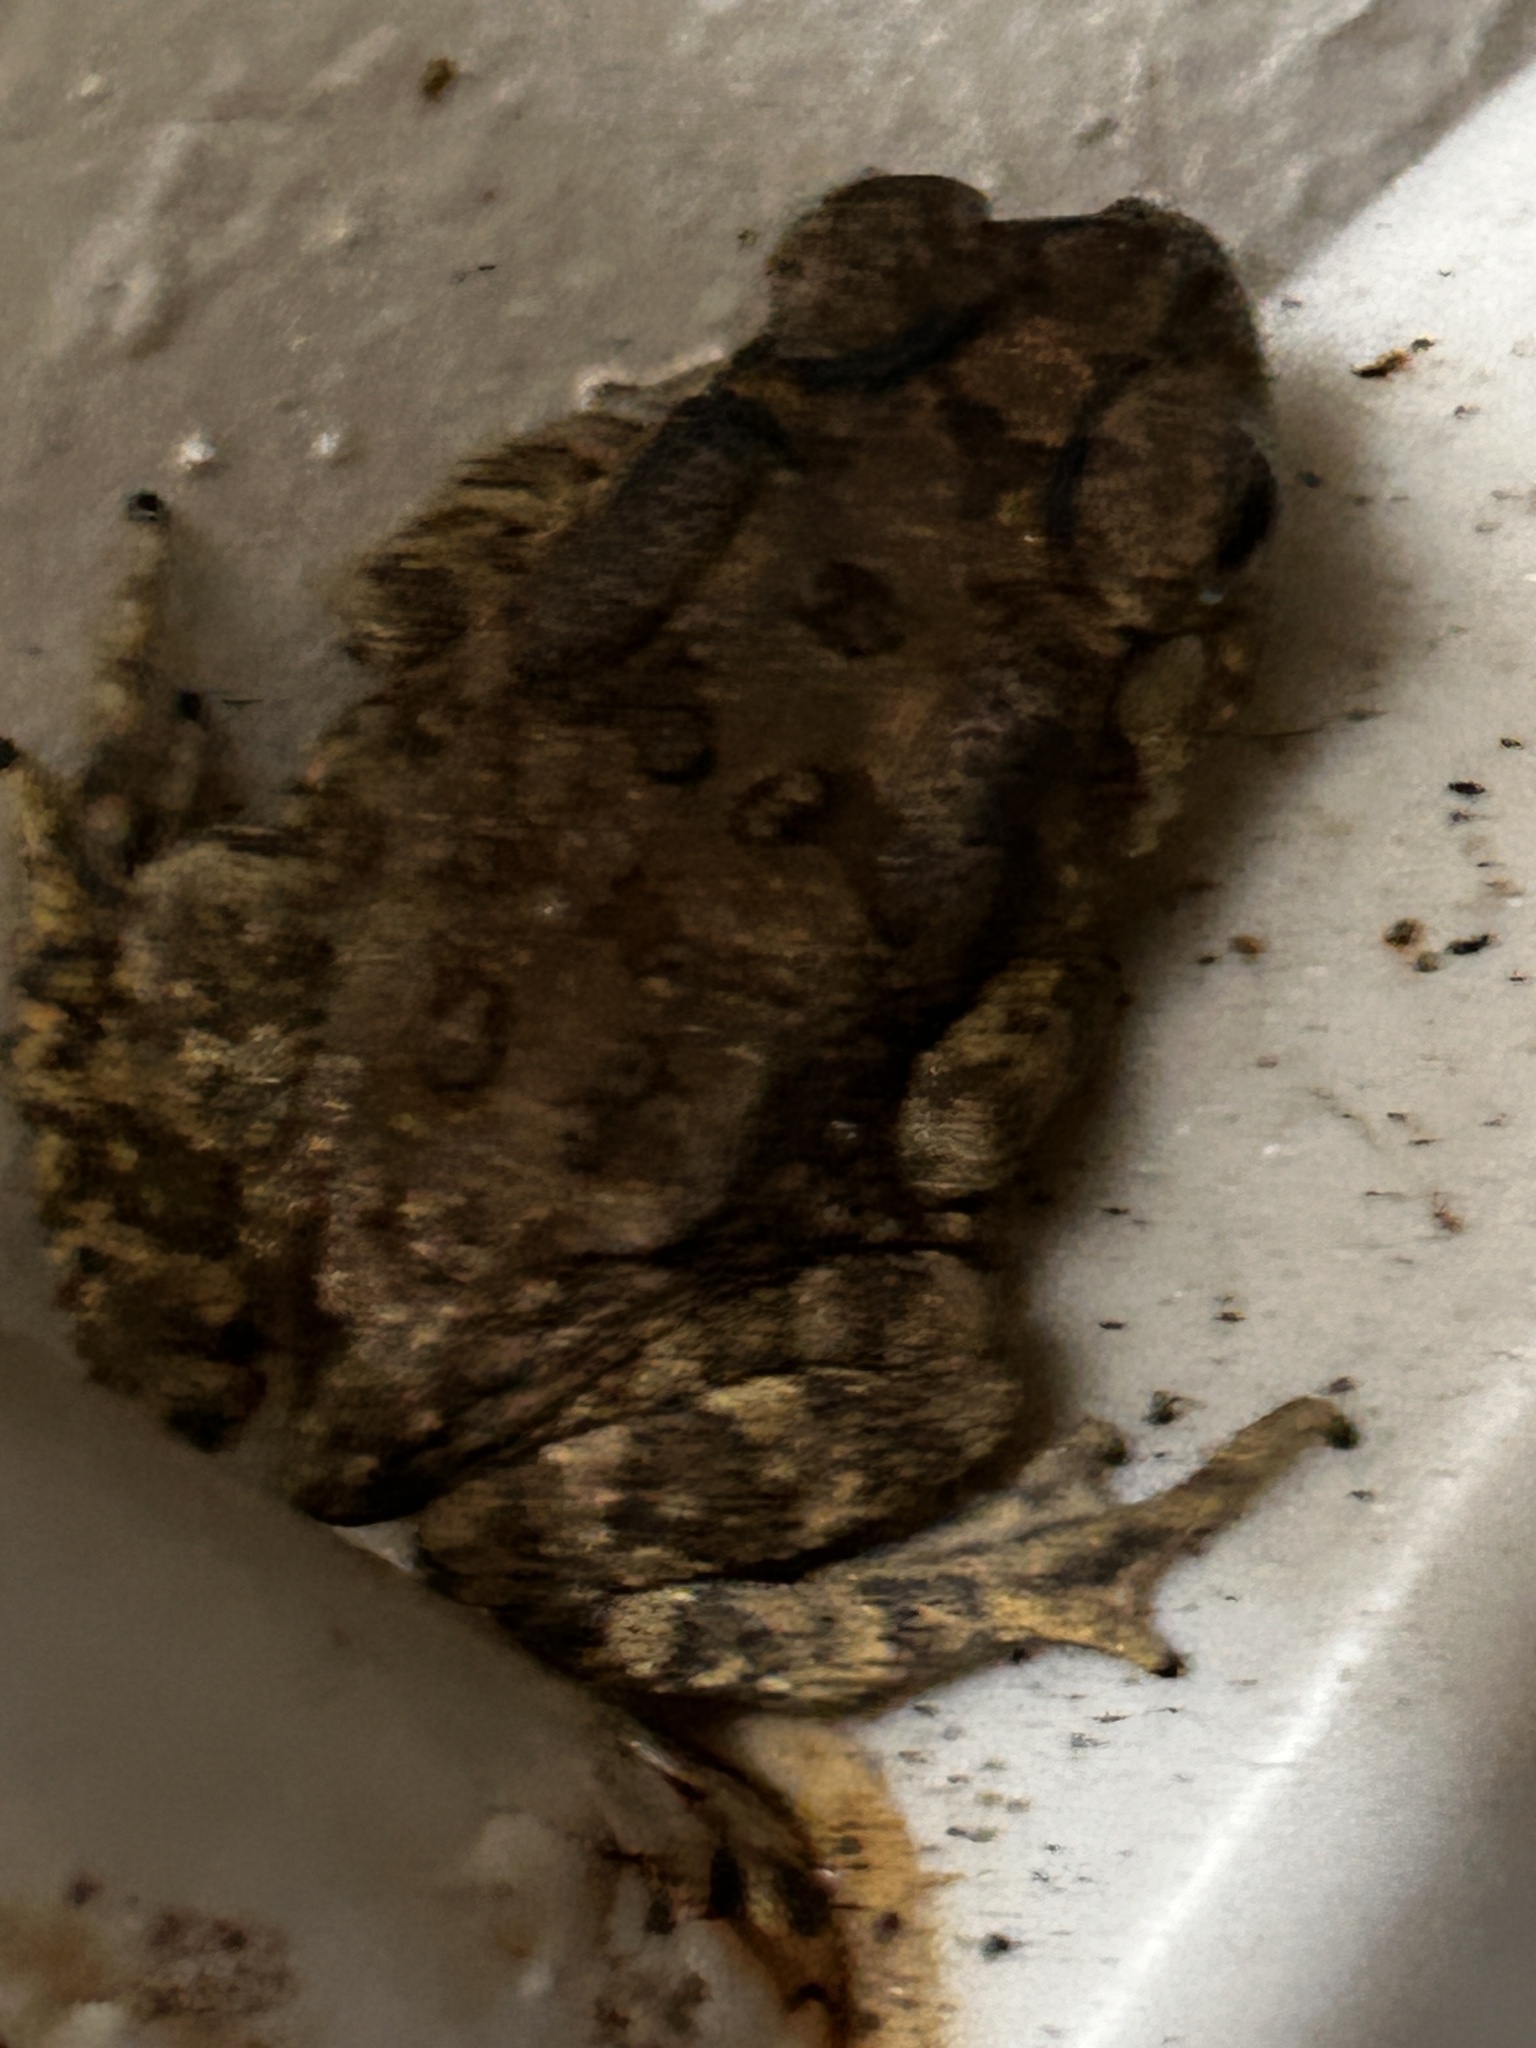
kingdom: Animalia
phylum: Chordata
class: Amphibia
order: Anura
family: Bufonidae
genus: Duttaphrynus
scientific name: Duttaphrynus melanostictus
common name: Common sunda toad
